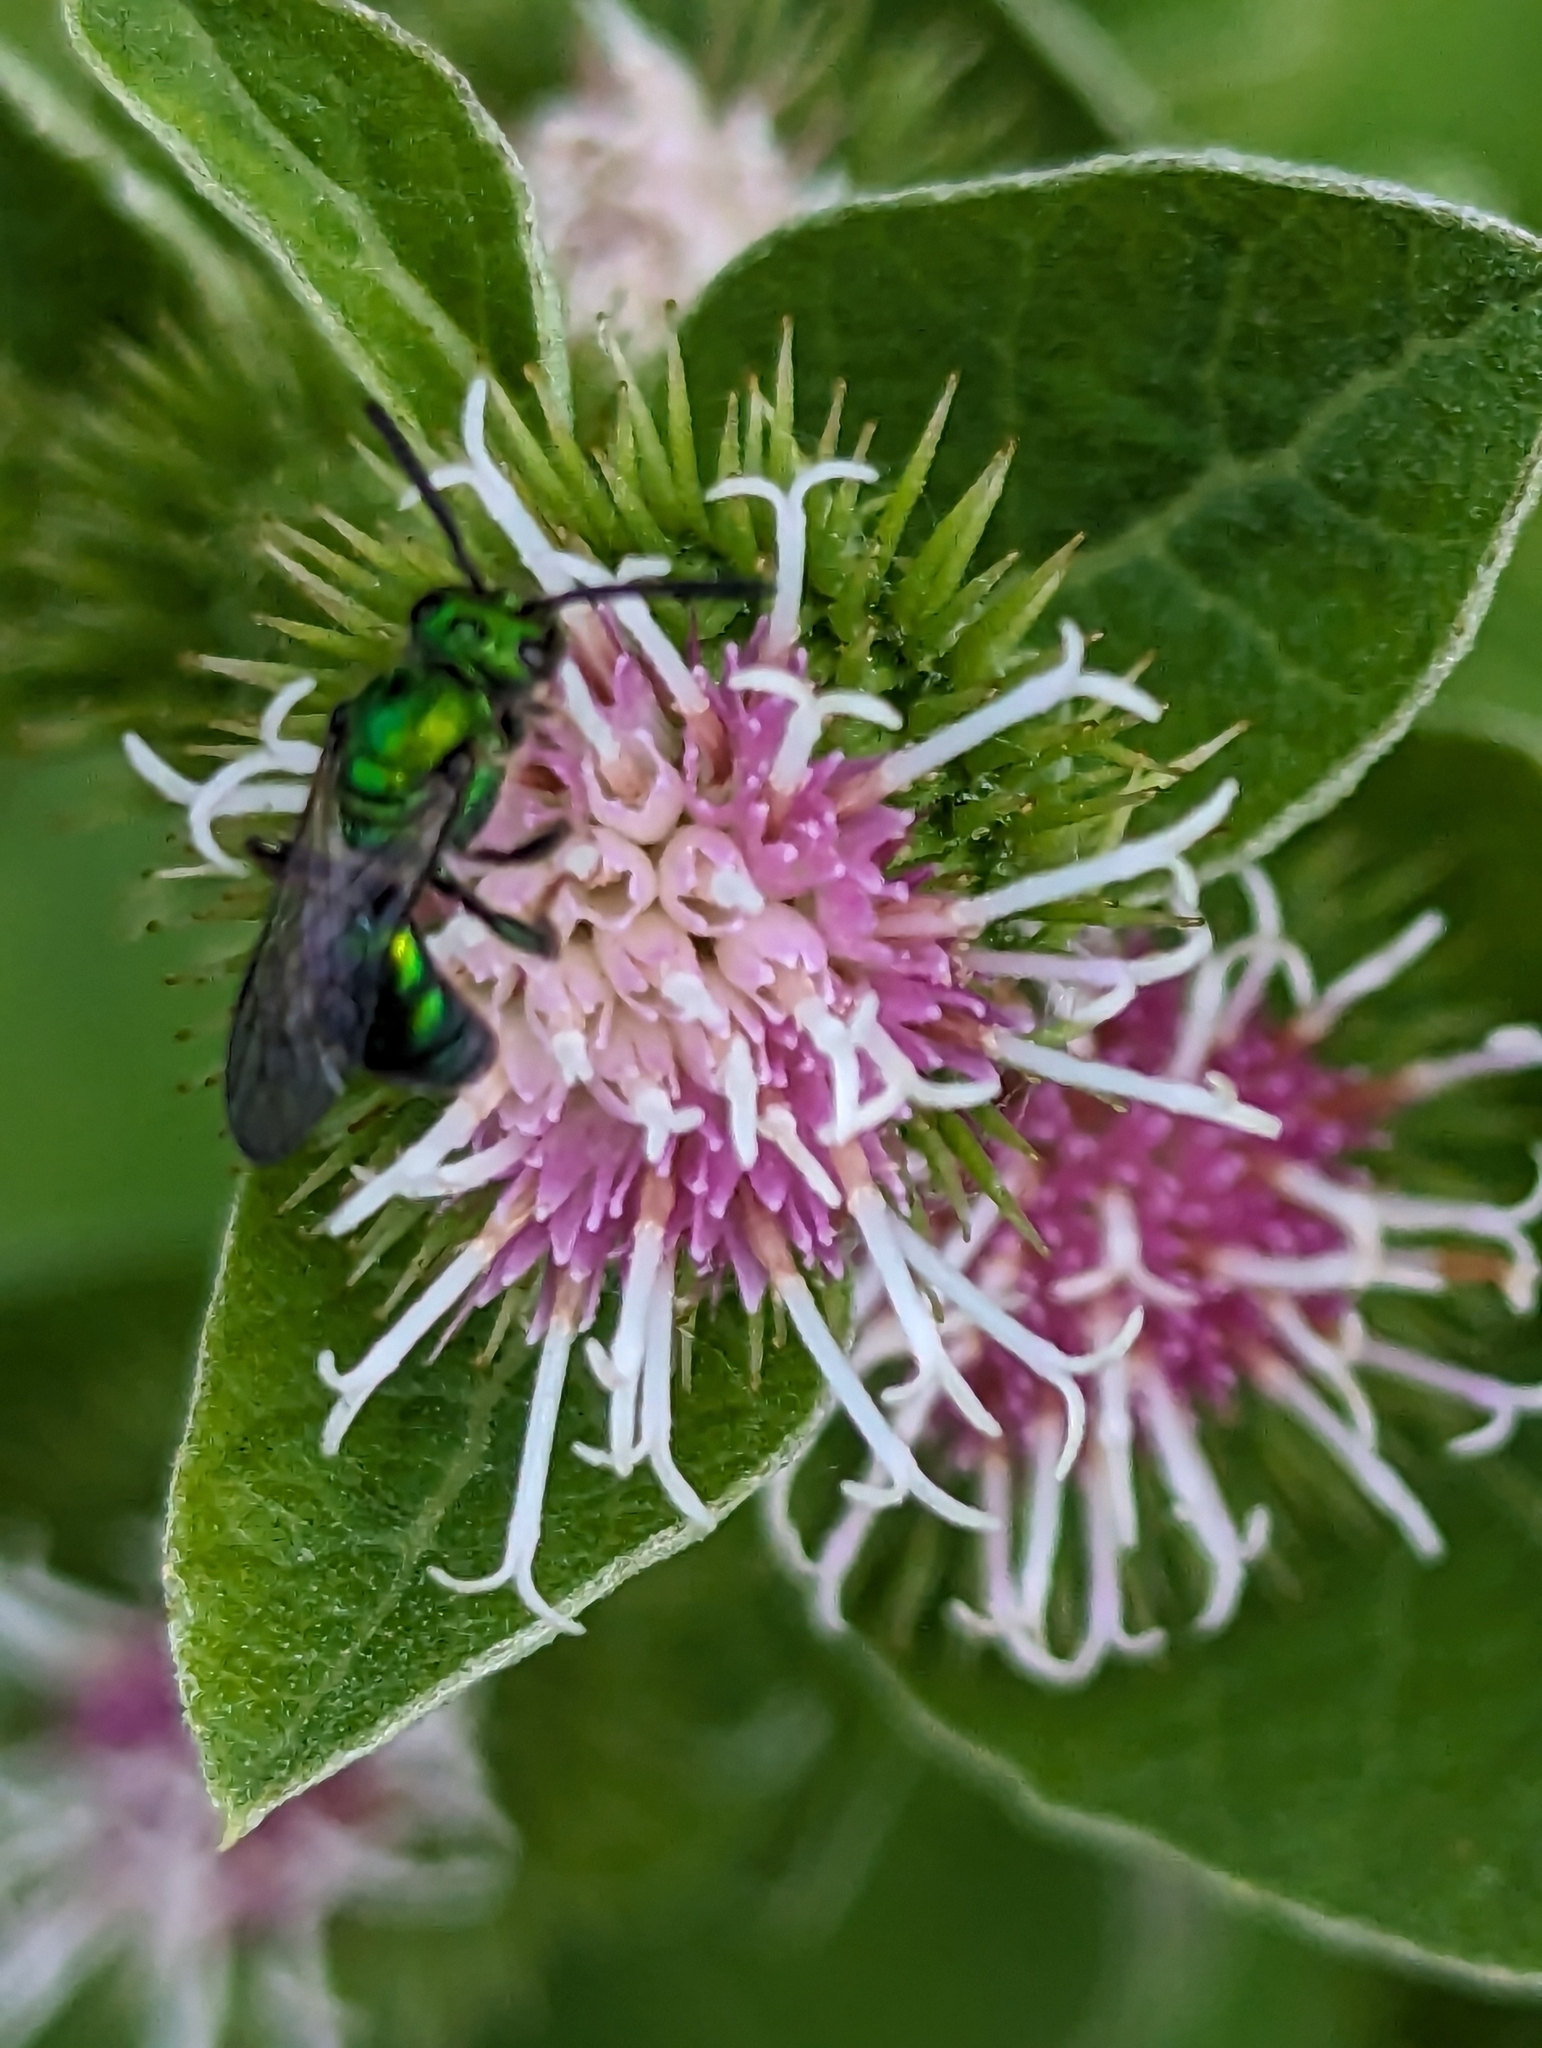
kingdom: Animalia
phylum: Arthropoda
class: Insecta
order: Hymenoptera
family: Halictidae
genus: Augochlora
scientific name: Augochlora pura
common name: Pure green sweat bee
